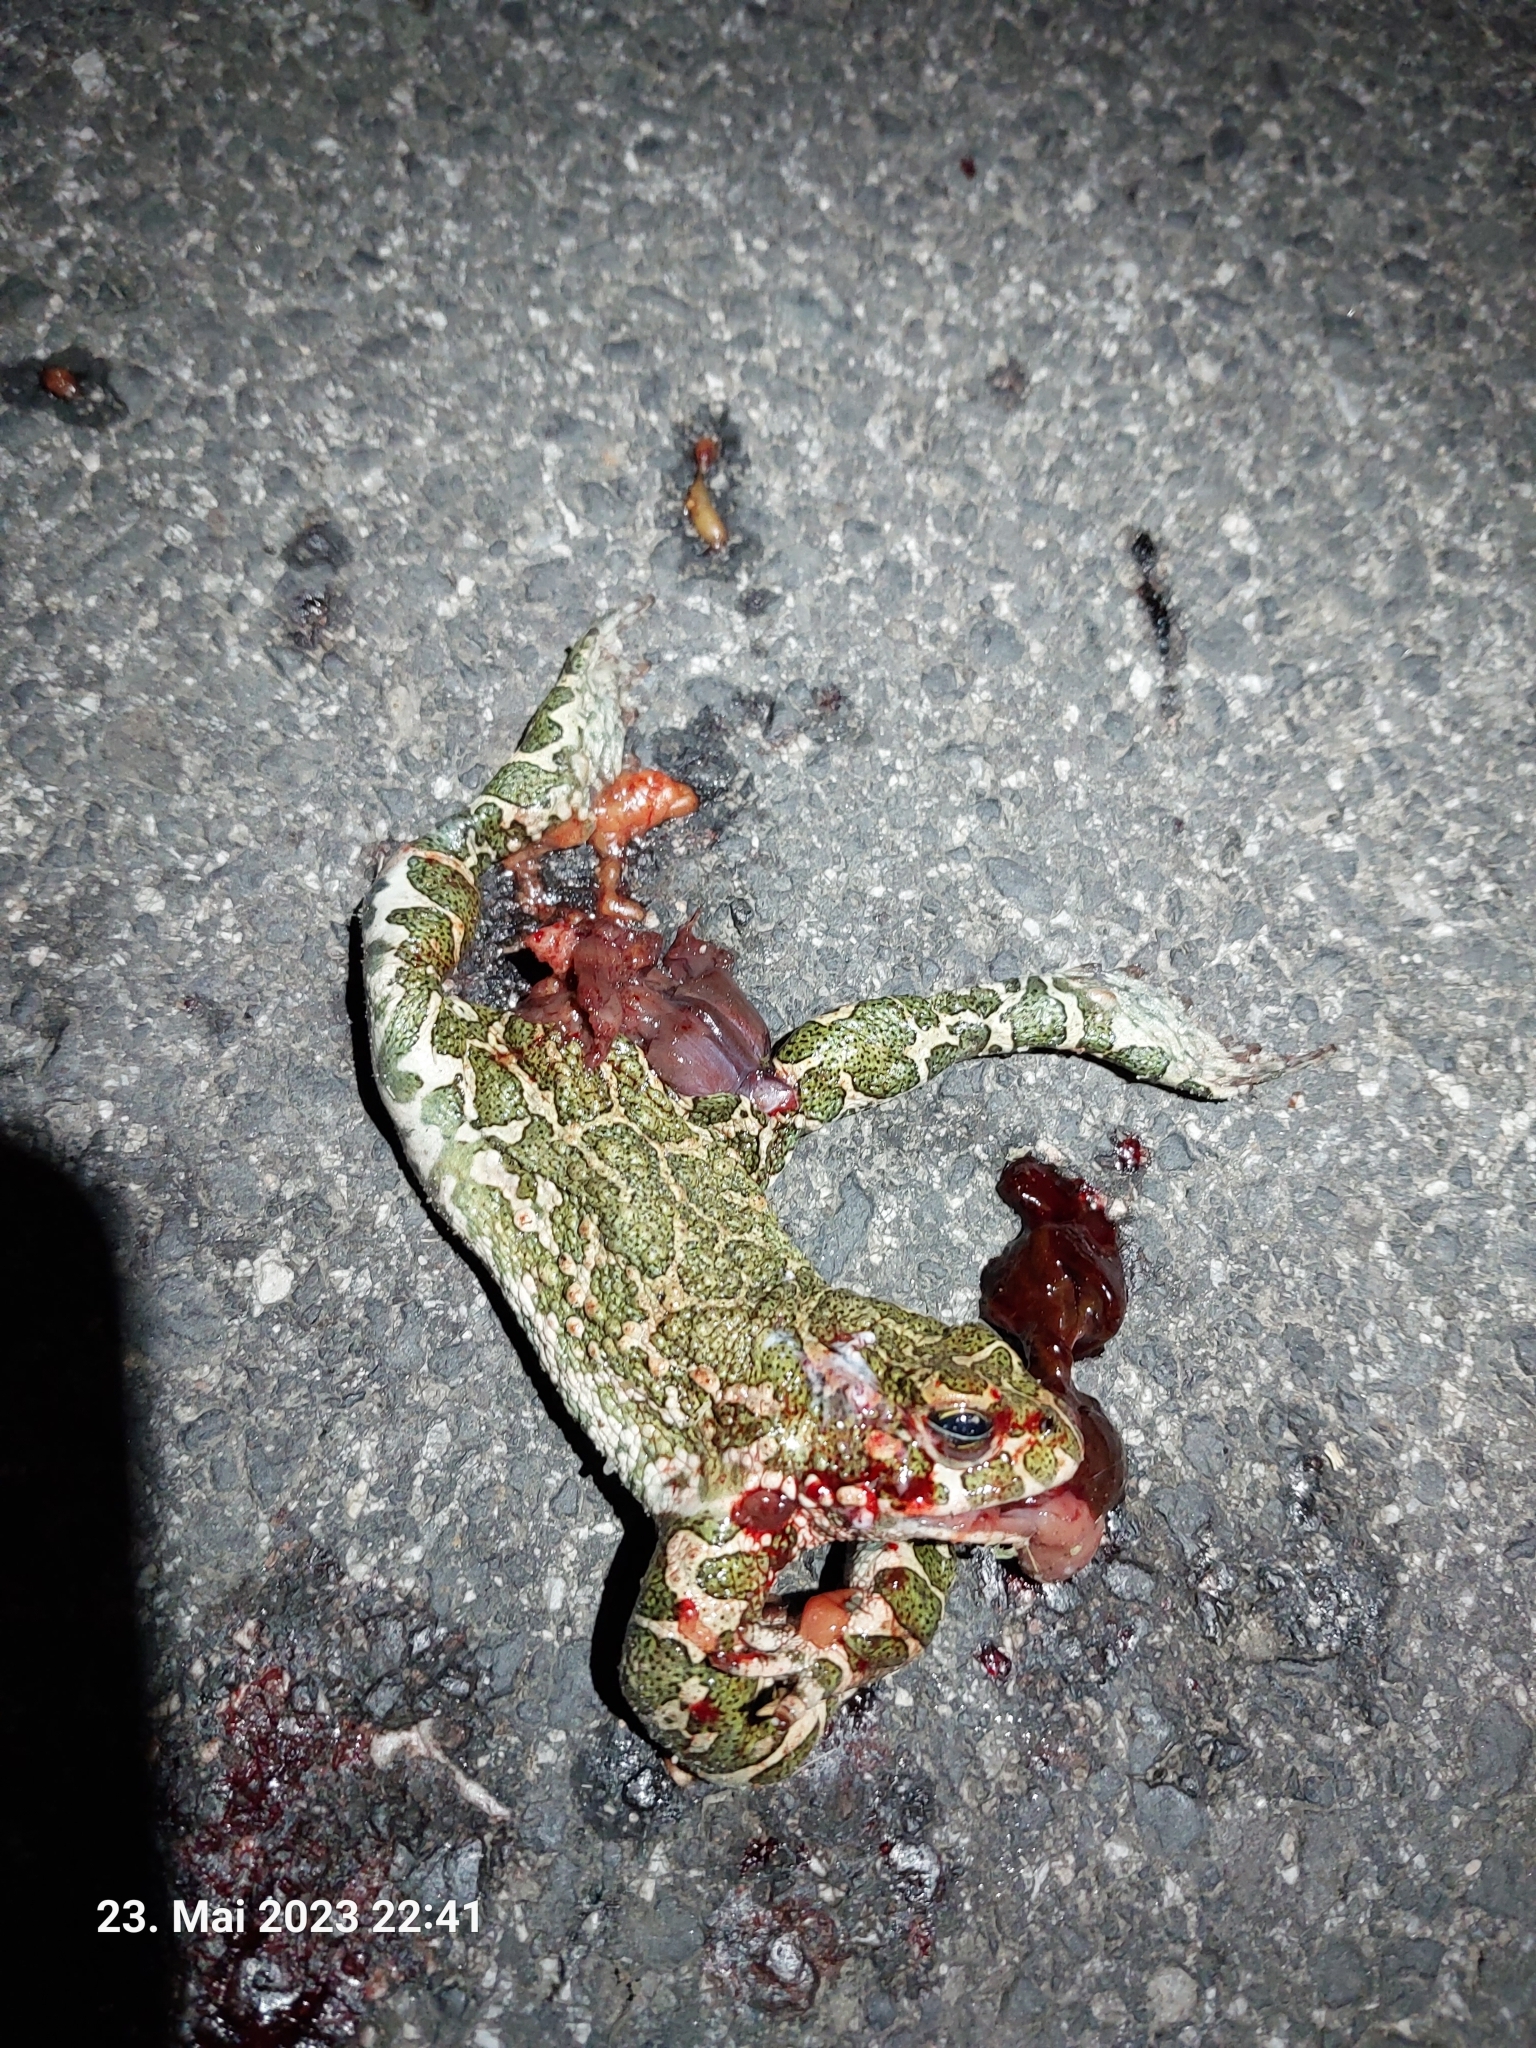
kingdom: Animalia
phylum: Chordata
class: Amphibia
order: Anura
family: Bufonidae
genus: Bufotes
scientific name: Bufotes viridis
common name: European green toad
